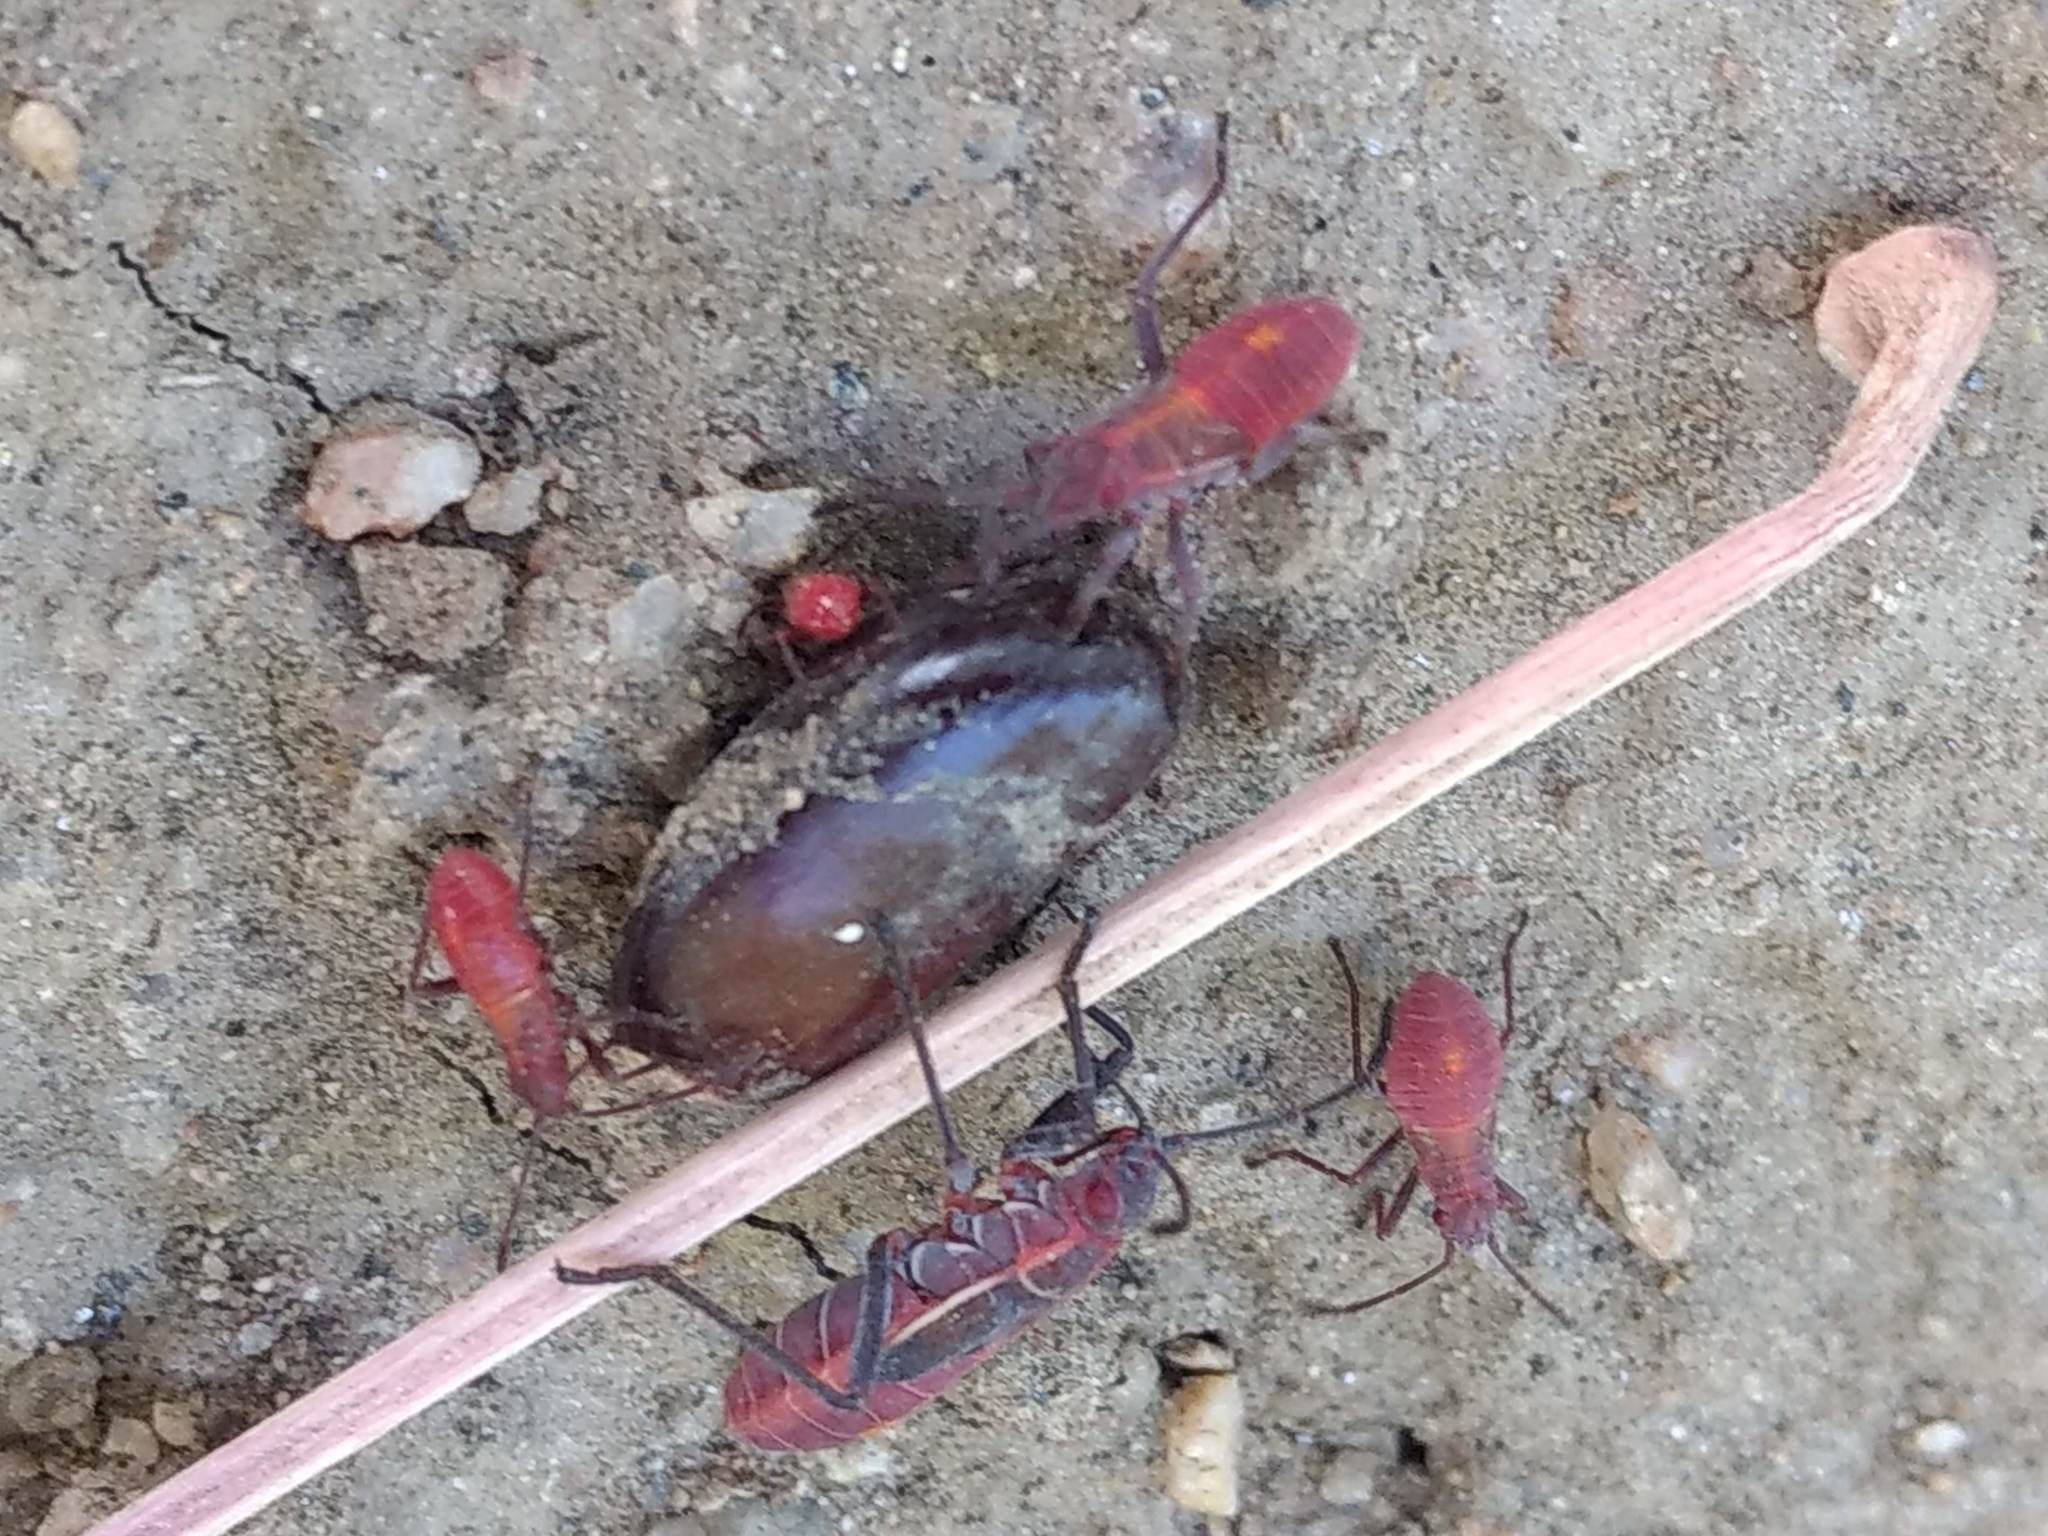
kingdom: Animalia
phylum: Arthropoda
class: Insecta
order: Hemiptera
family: Rhopalidae
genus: Boisea
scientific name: Boisea rubrolineata
